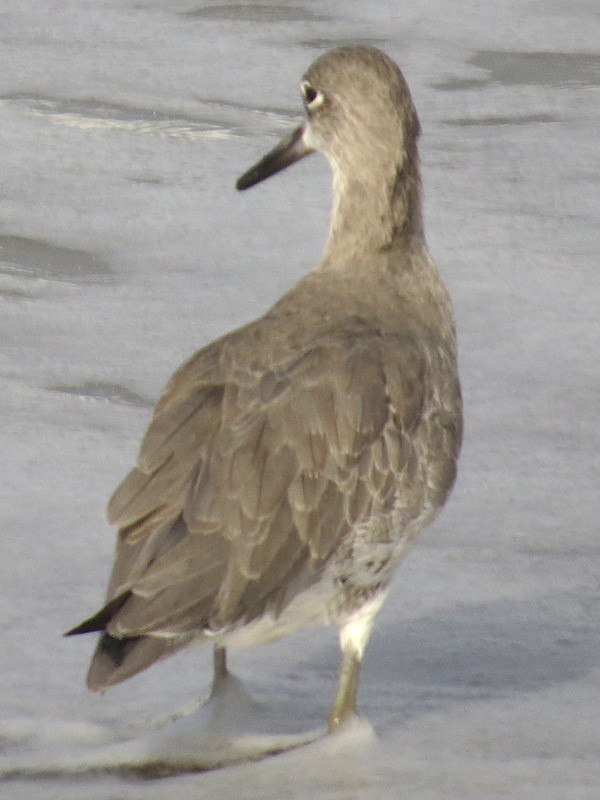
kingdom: Animalia
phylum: Chordata
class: Aves
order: Charadriiformes
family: Scolopacidae
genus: Tringa
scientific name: Tringa semipalmata
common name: Willet
